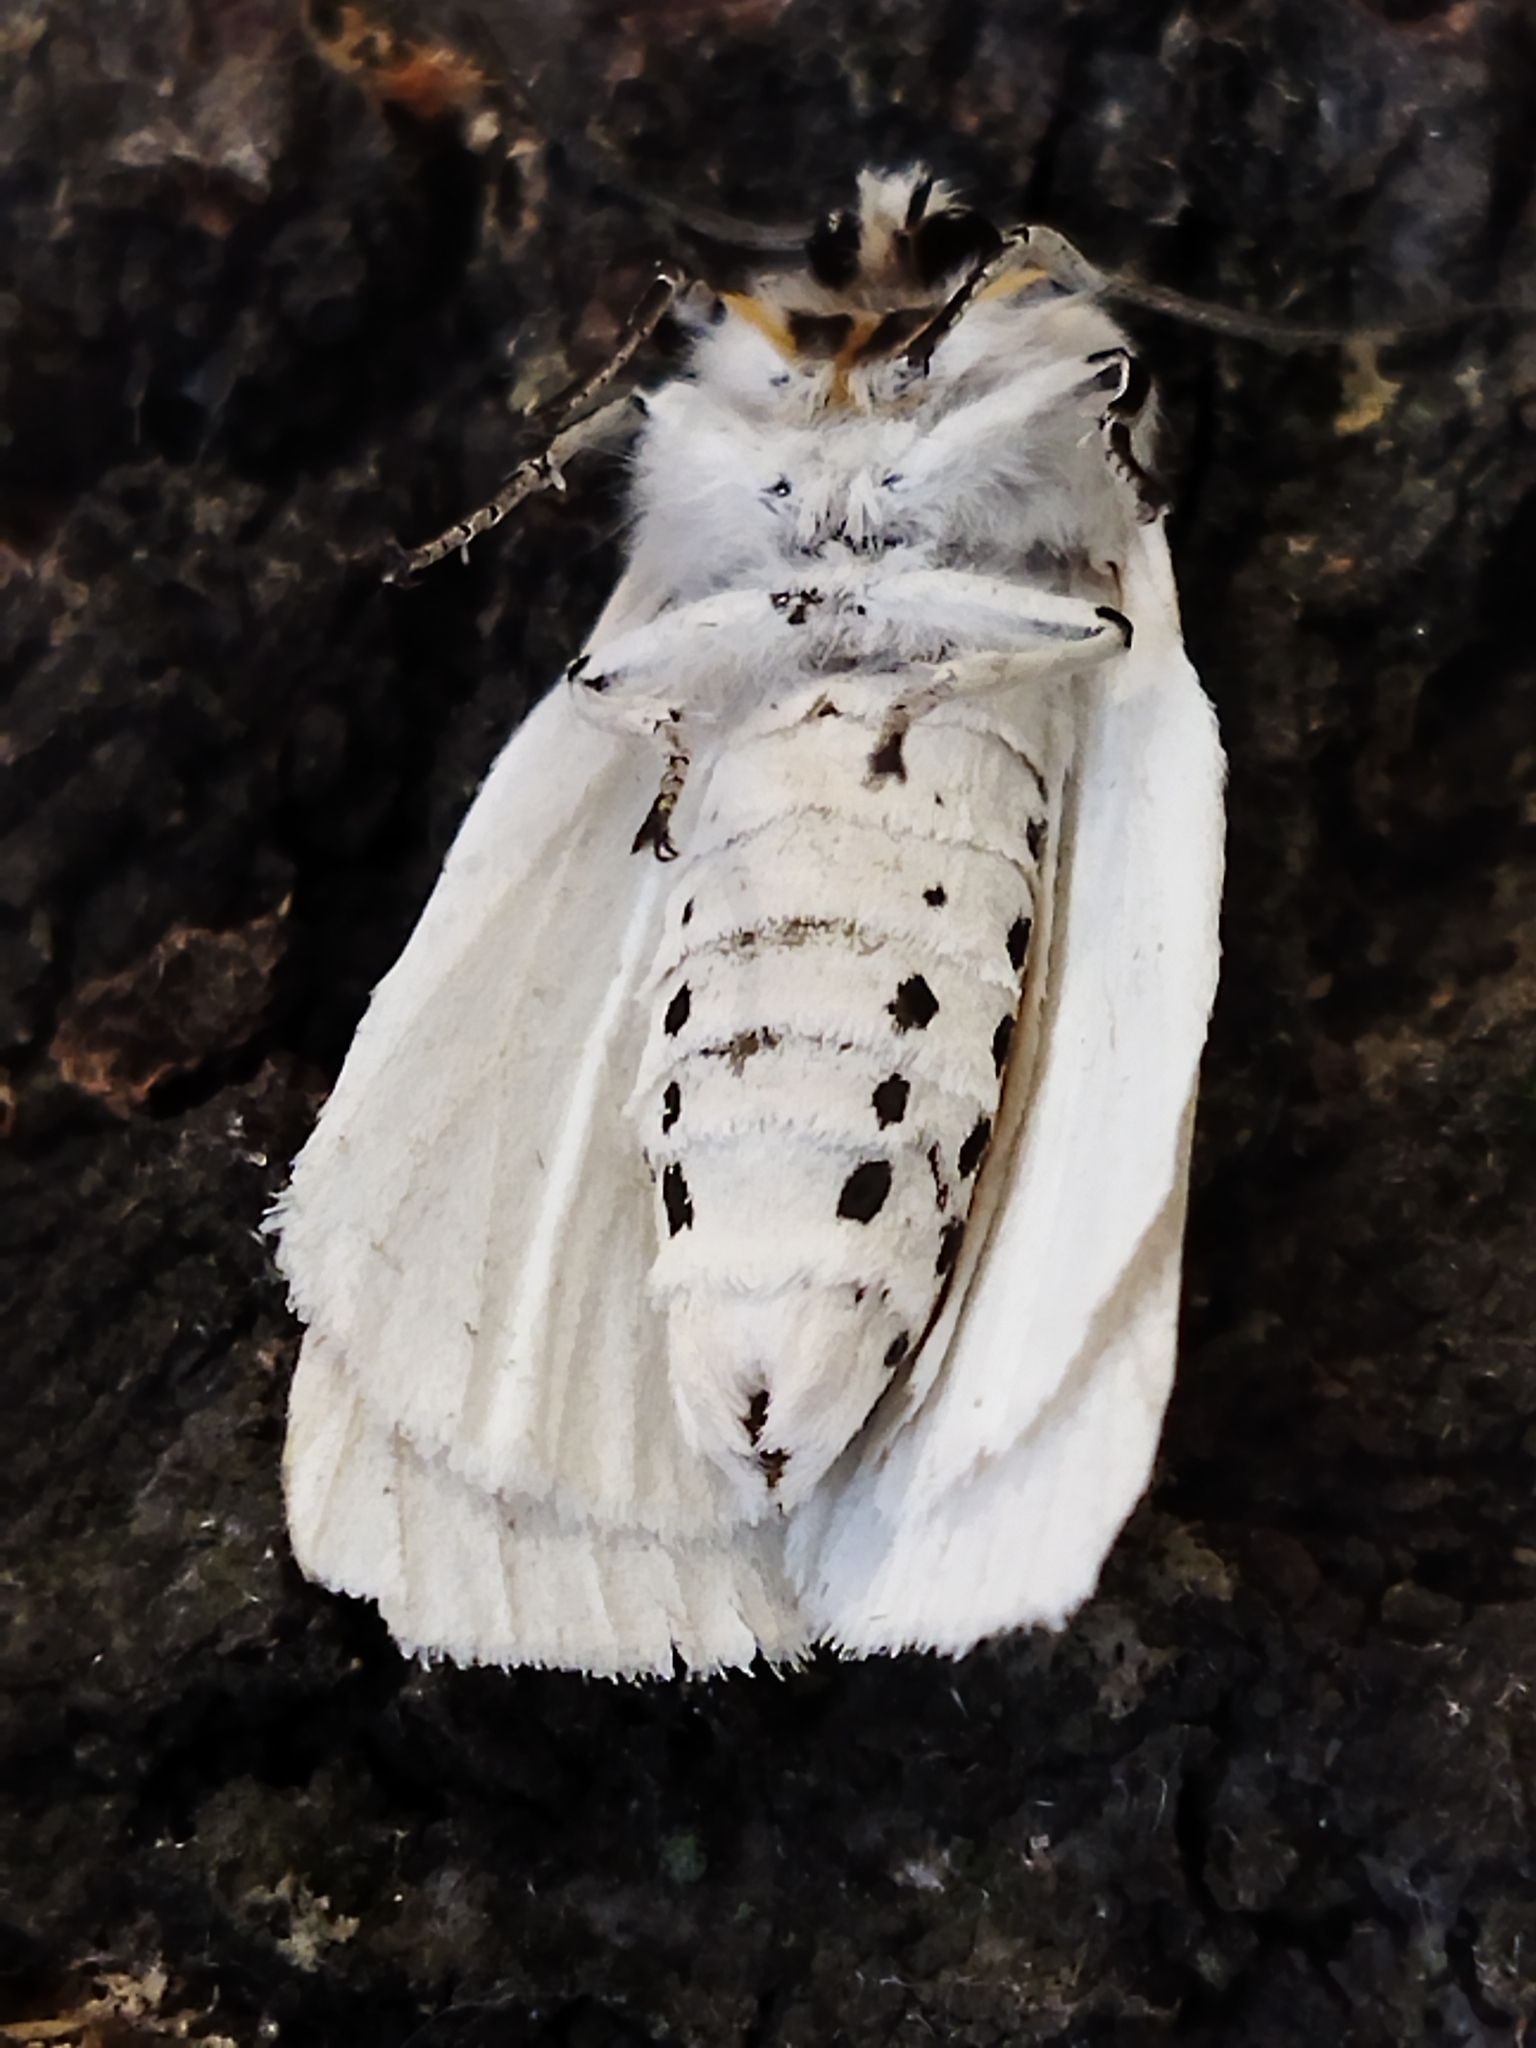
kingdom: Animalia
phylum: Arthropoda
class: Insecta
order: Lepidoptera
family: Erebidae
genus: Spilosoma
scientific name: Spilosoma lubricipeda
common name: White ermine
